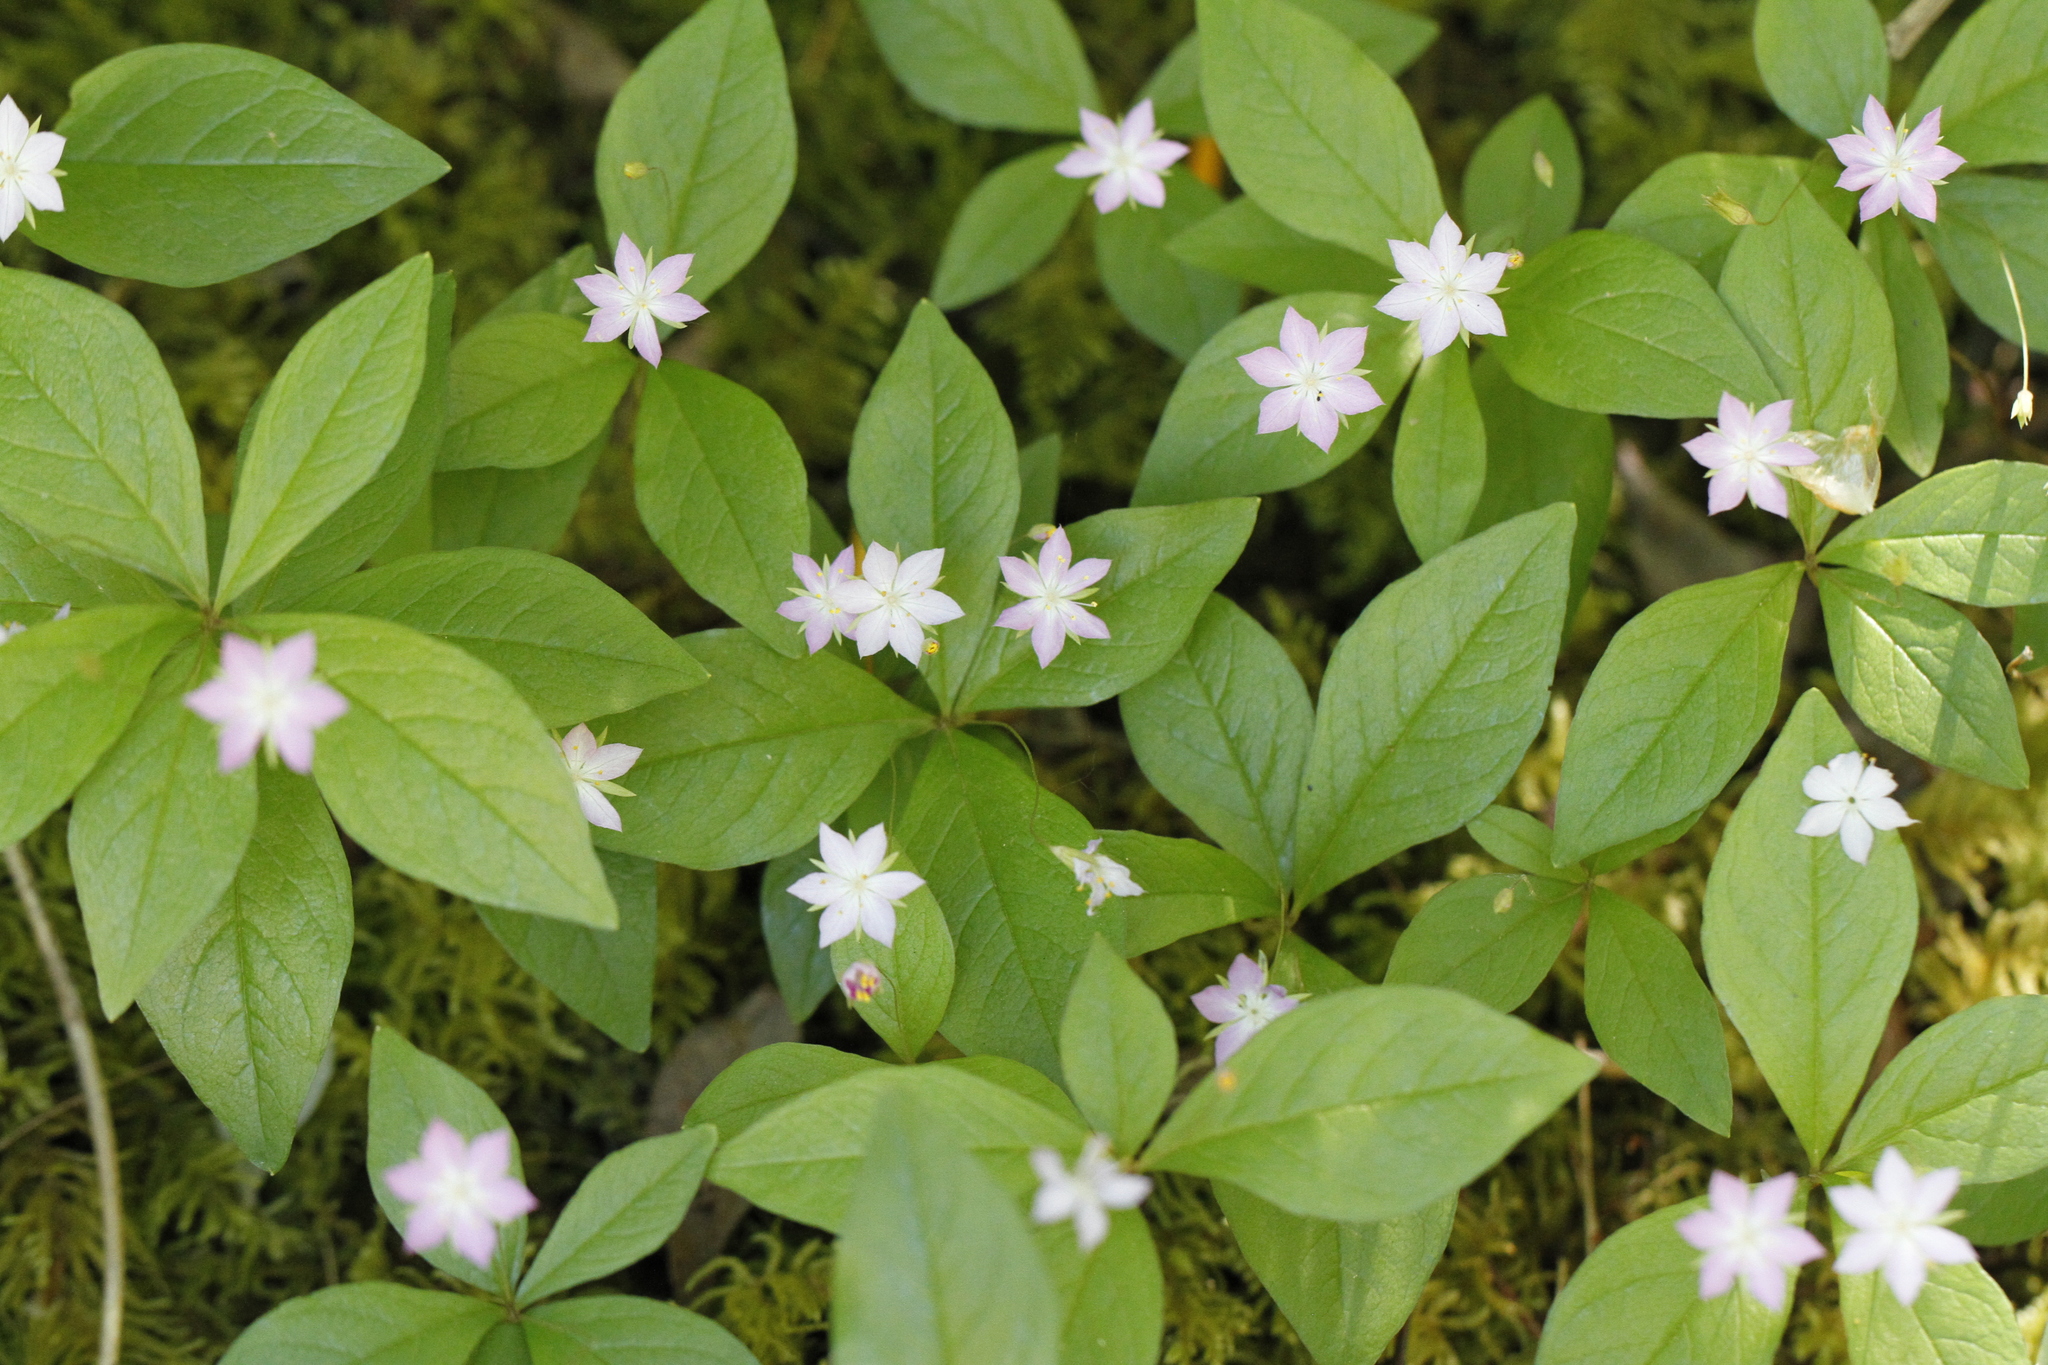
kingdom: Plantae
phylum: Tracheophyta
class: Magnoliopsida
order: Ericales
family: Primulaceae
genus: Lysimachia
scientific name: Lysimachia latifolia
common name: Pacific starflower
